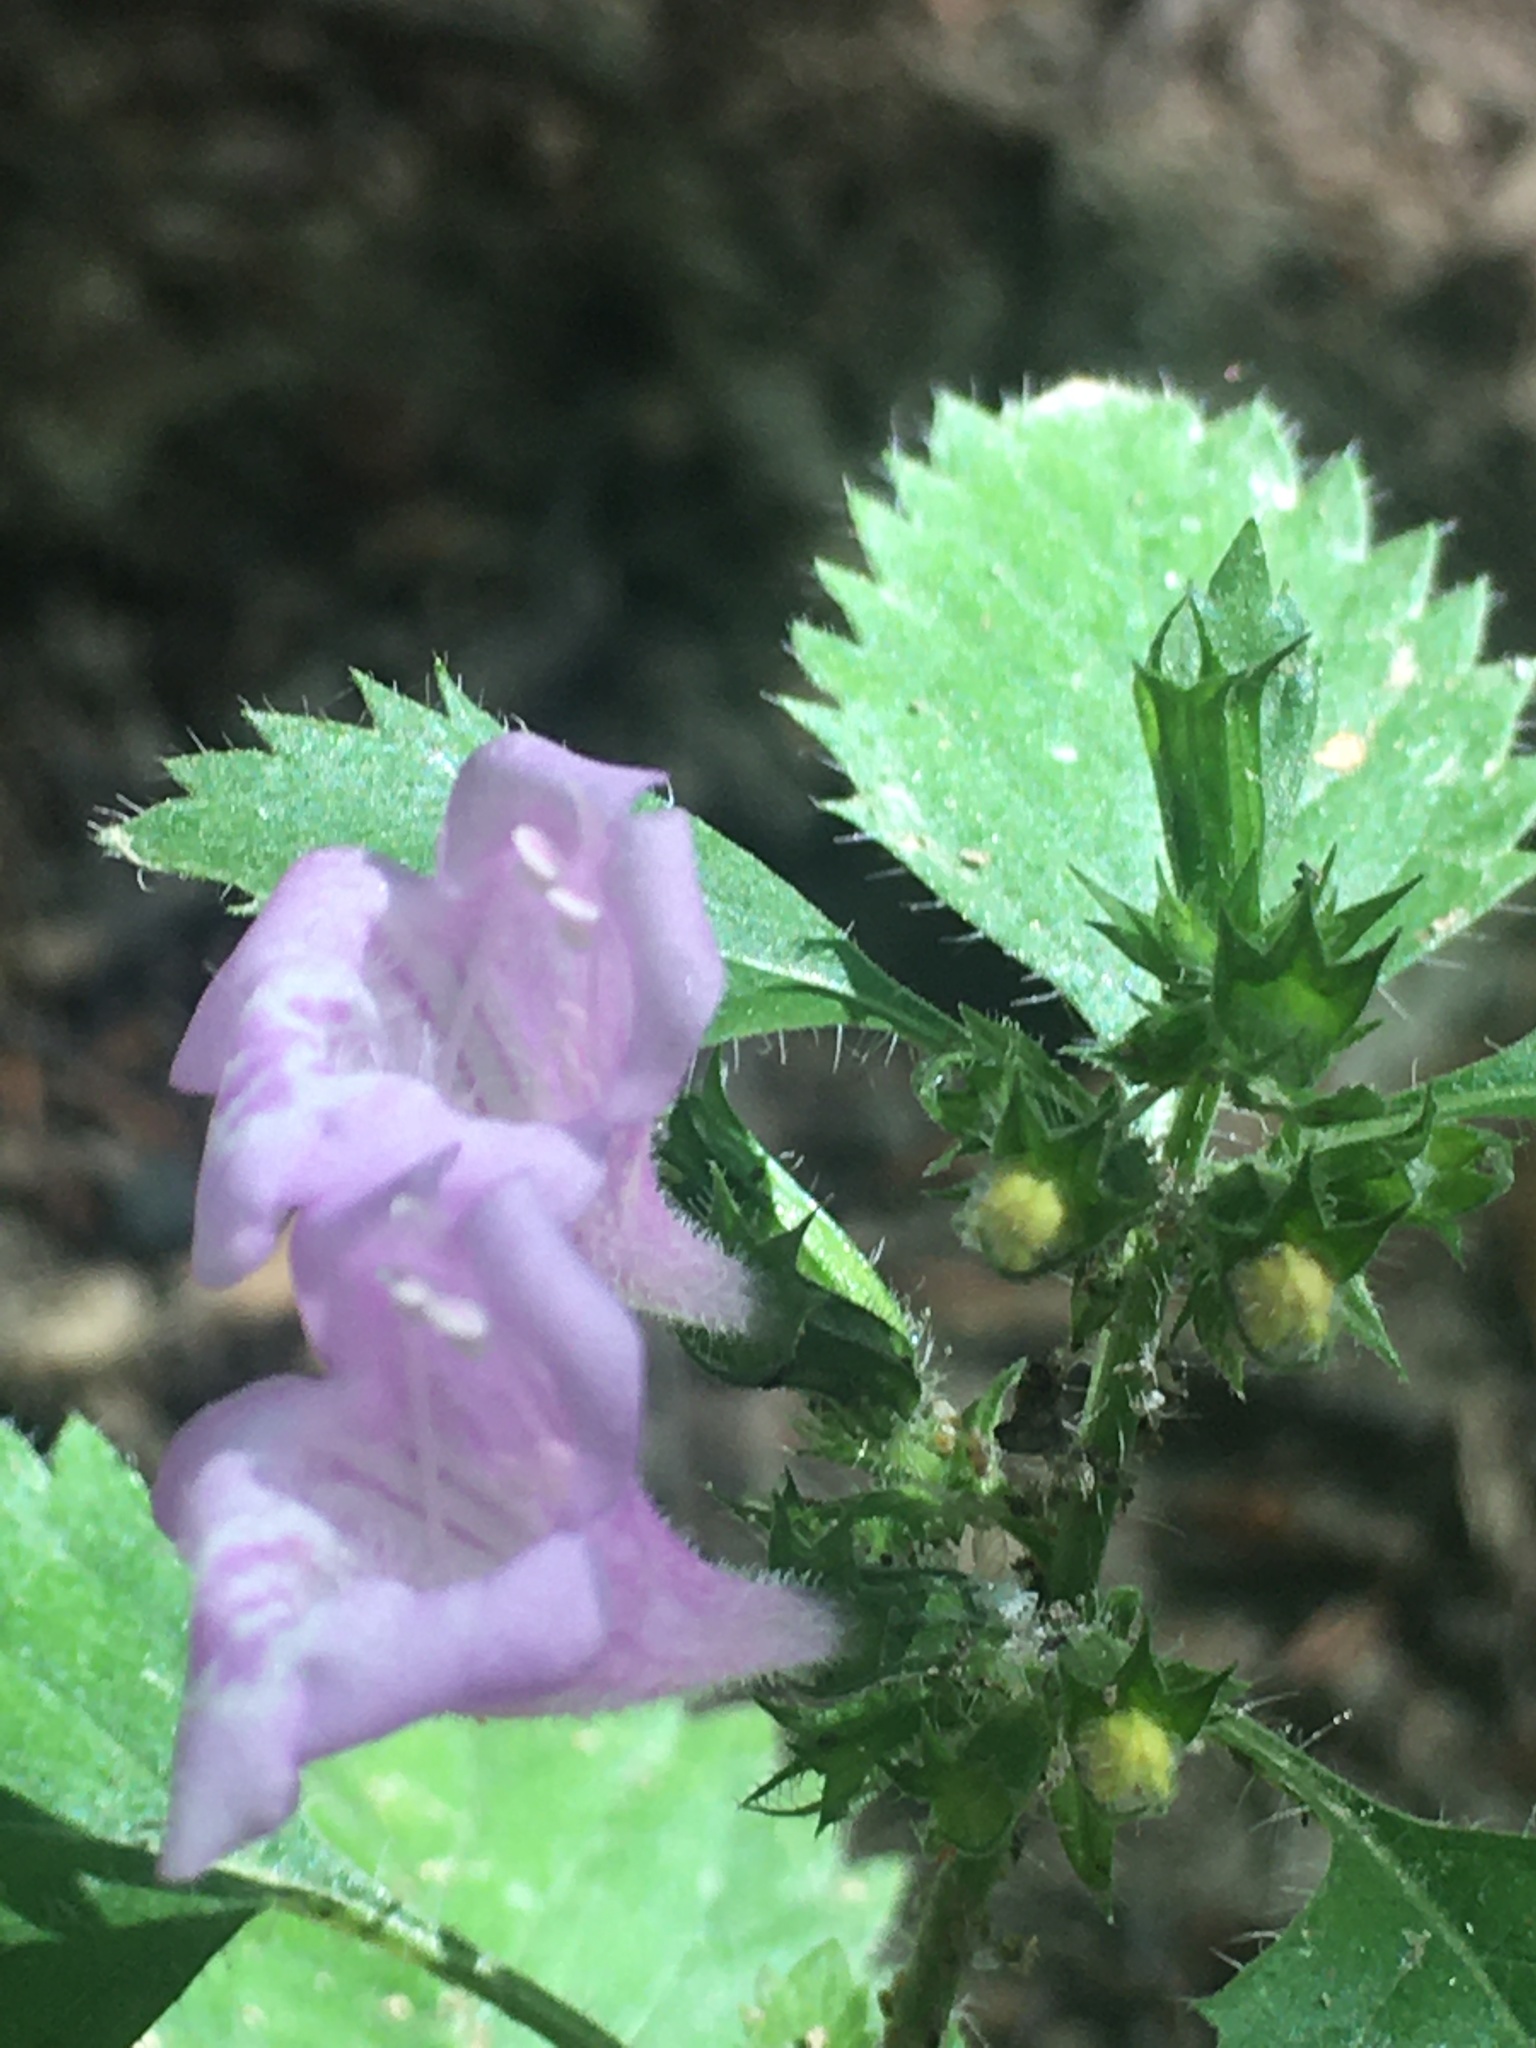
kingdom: Plantae
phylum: Tracheophyta
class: Magnoliopsida
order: Asterales
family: Campanulaceae
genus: Campanula
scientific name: Campanula trachelium
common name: Nettle-leaved bellflower
